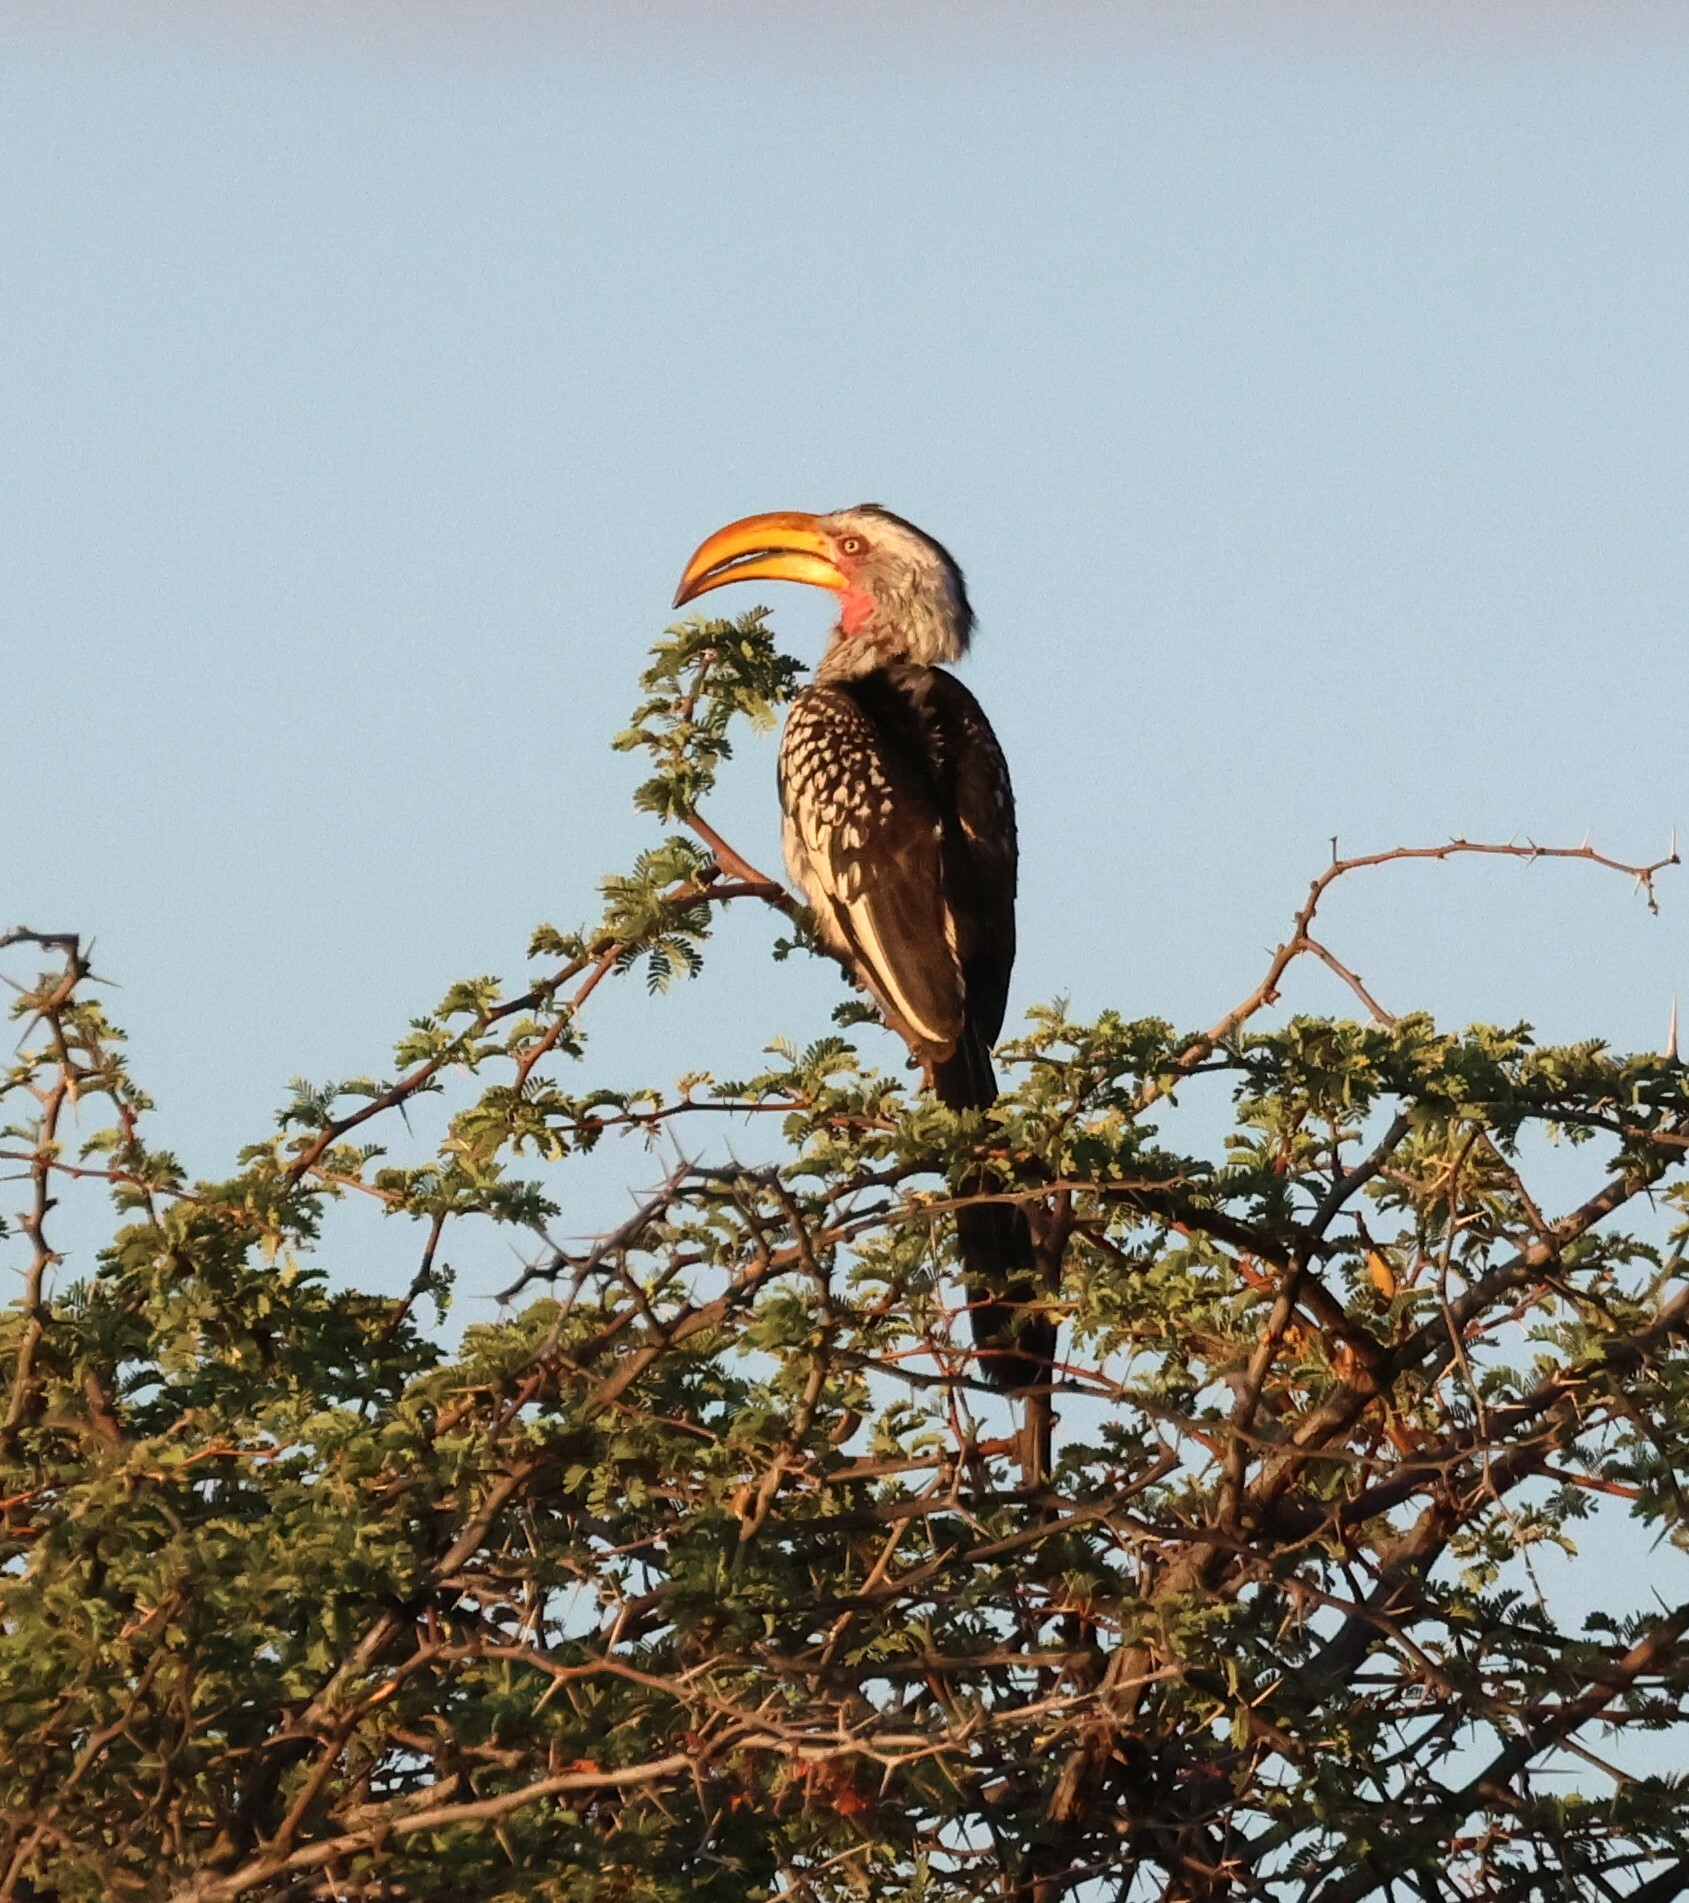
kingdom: Animalia
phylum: Chordata
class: Aves
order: Bucerotiformes
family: Bucerotidae
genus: Tockus
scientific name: Tockus leucomelas
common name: Southern yellow-billed hornbill
